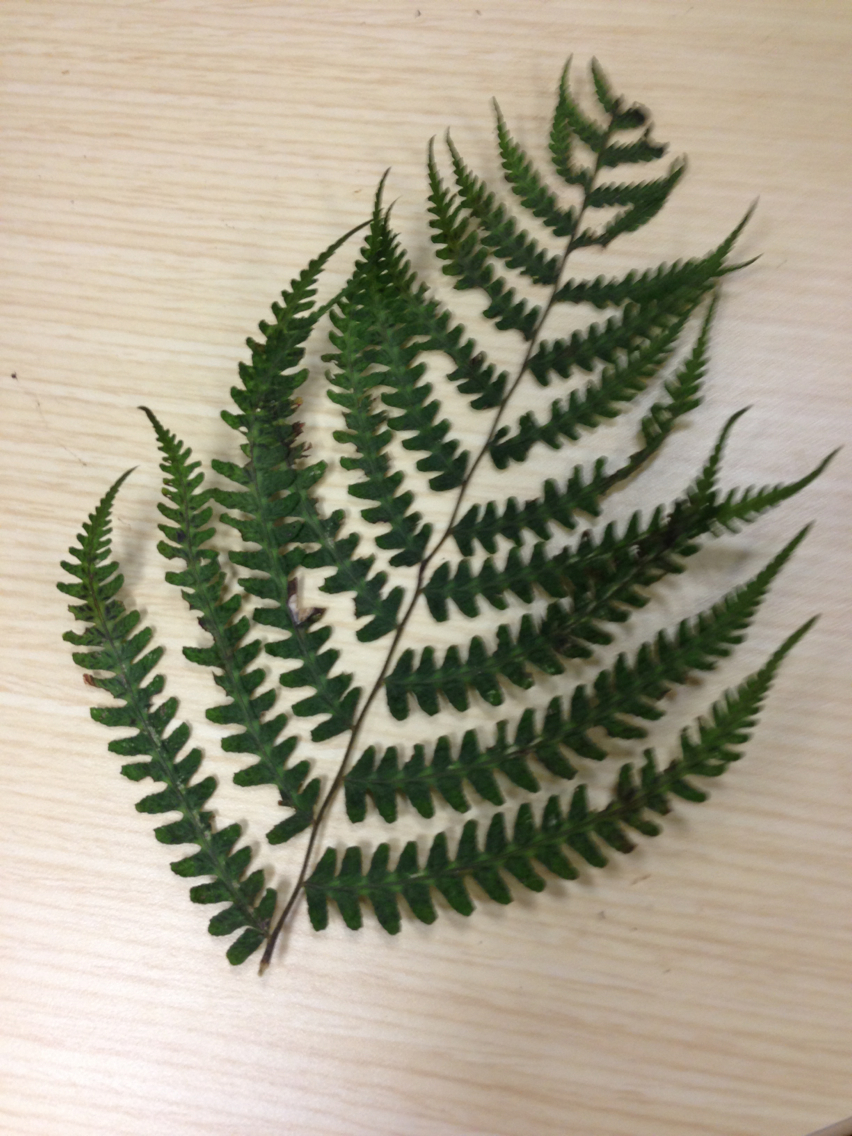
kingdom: Plantae
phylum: Tracheophyta
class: Polypodiopsida
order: Polypodiales
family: Athyriaceae
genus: Deparia
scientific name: Deparia acrostichoides
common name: Silver false spleenwort
